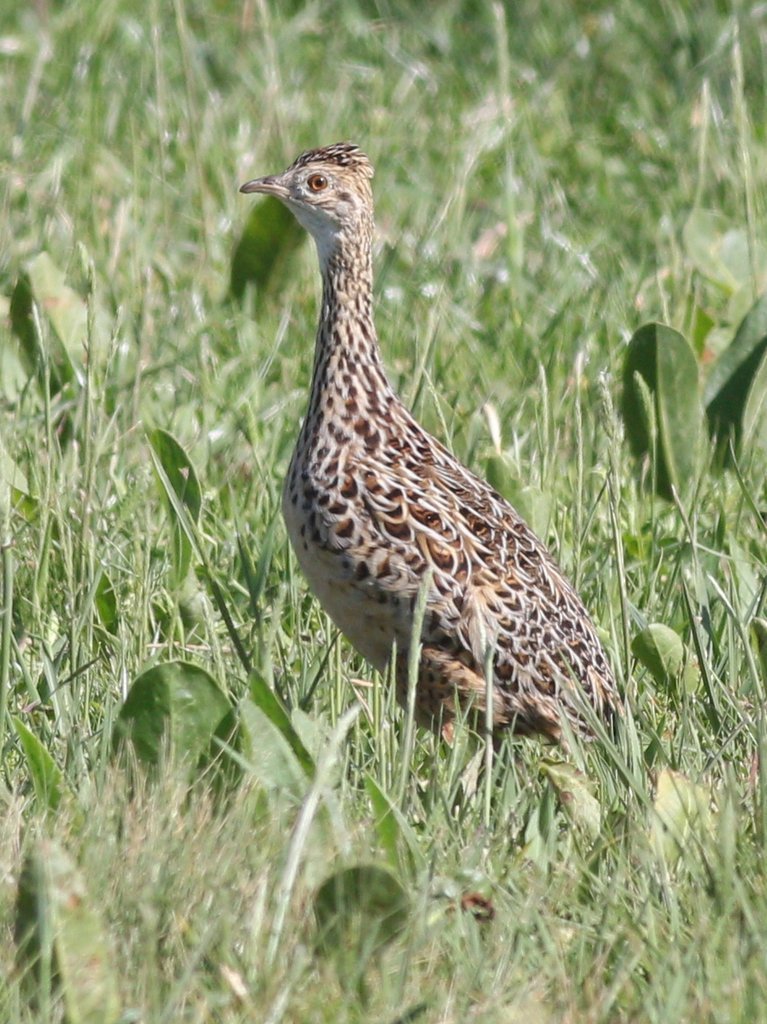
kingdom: Animalia
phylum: Chordata
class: Aves
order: Tinamiformes
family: Tinamidae
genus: Nothura
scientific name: Nothura maculosa
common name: Spotted nothura
